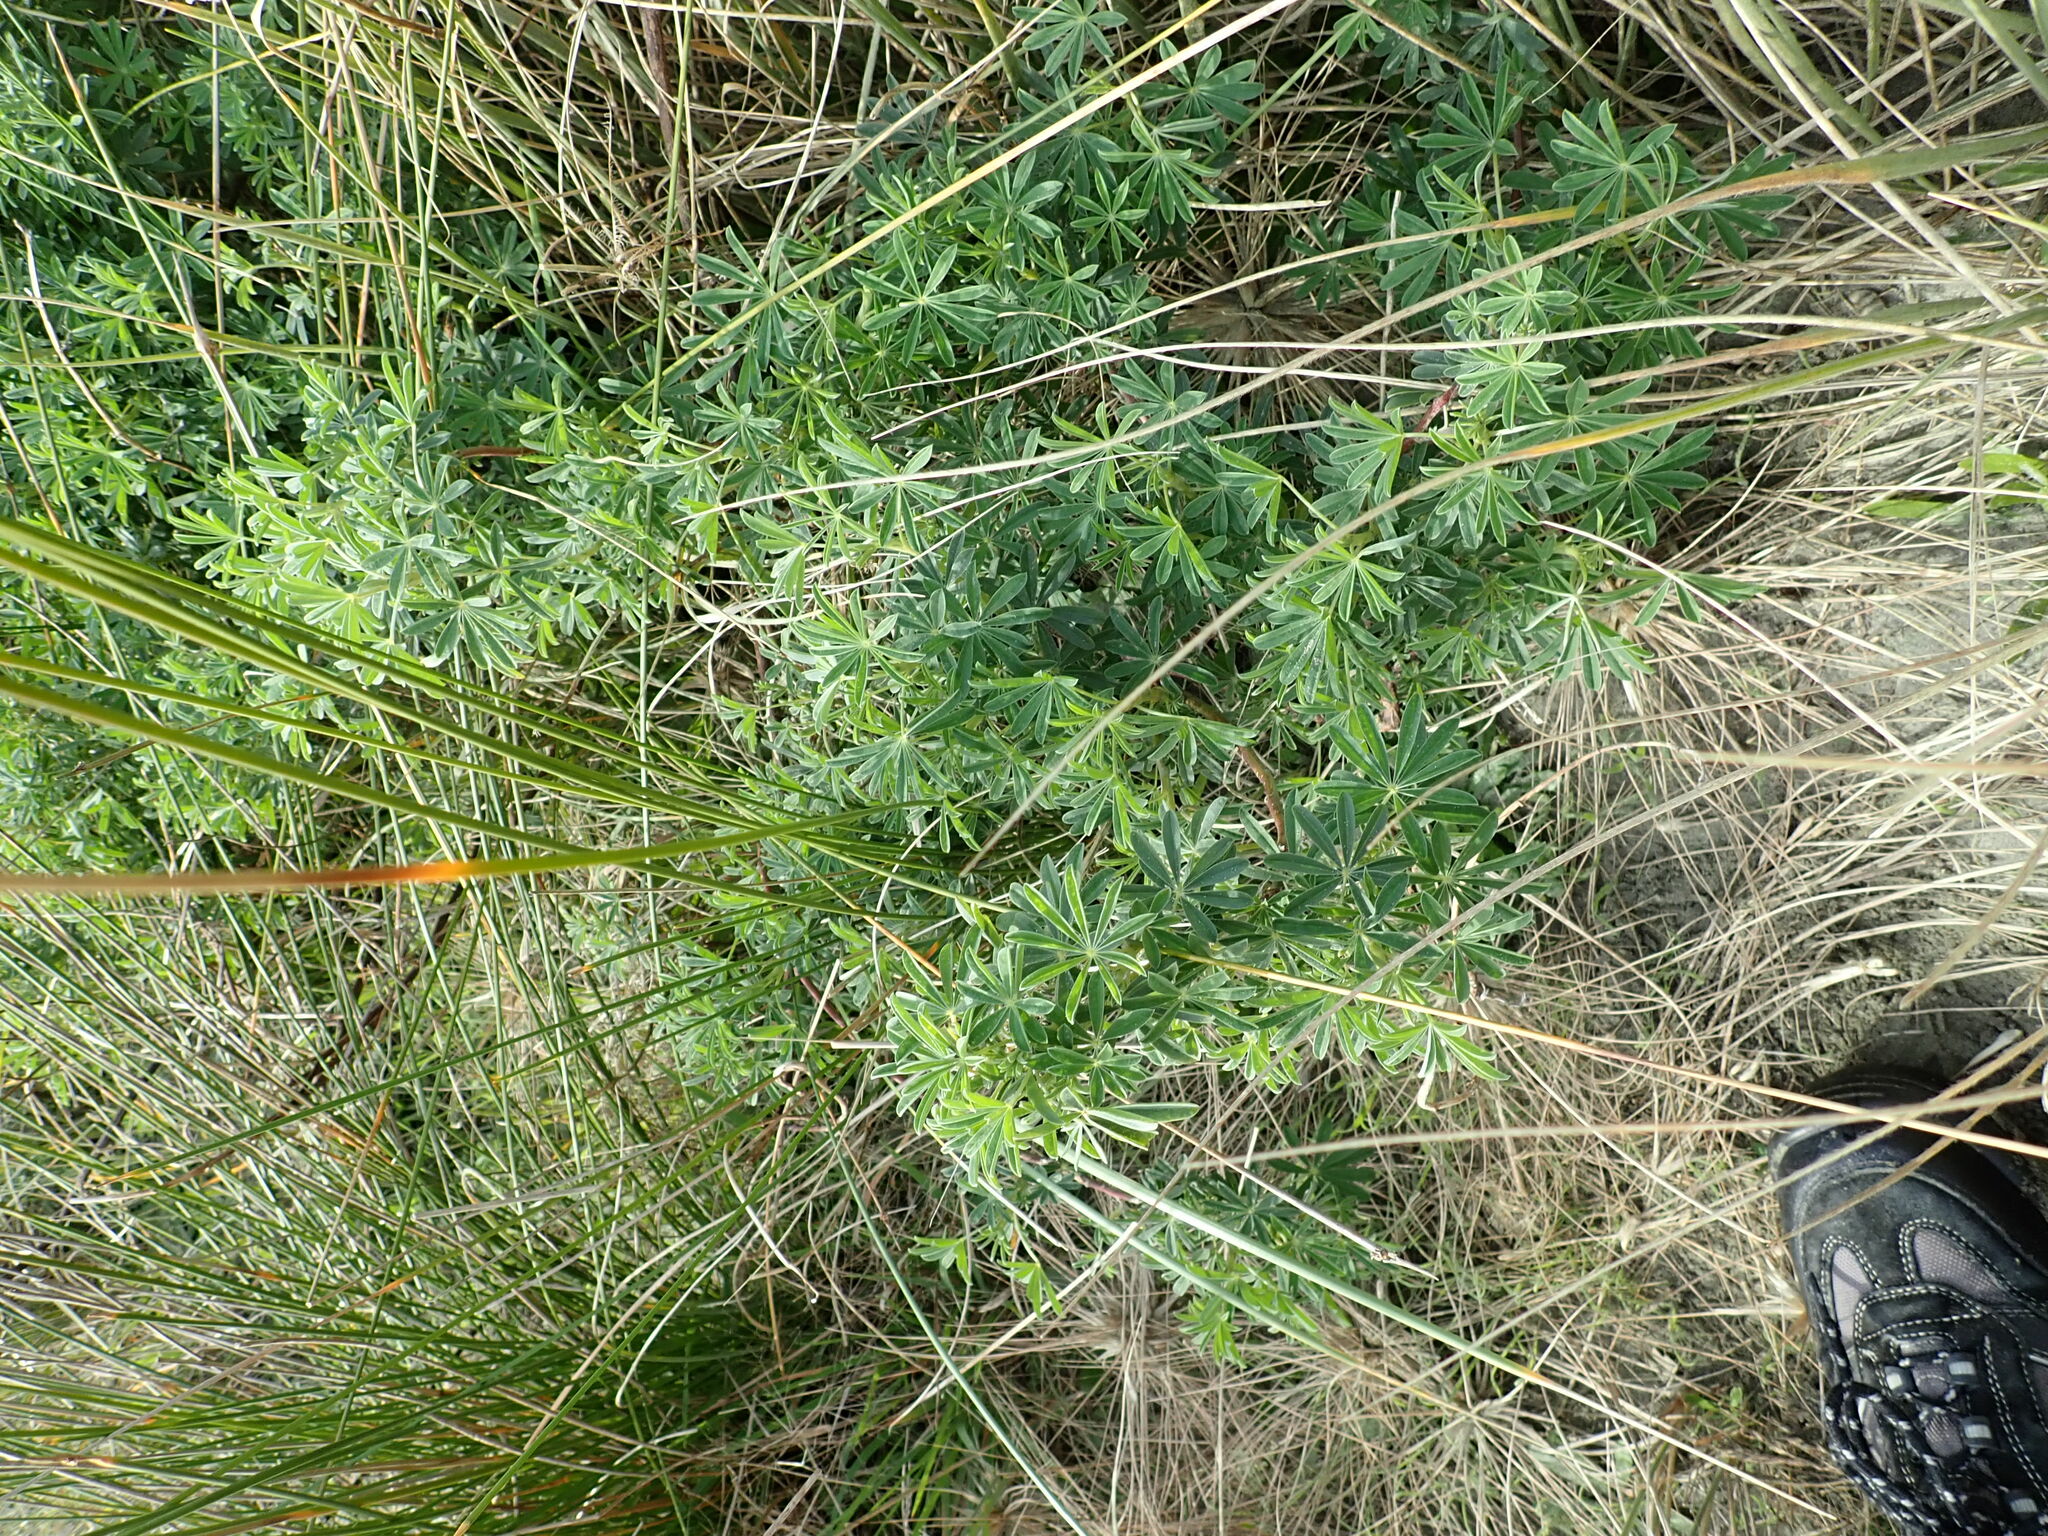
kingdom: Plantae
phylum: Tracheophyta
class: Magnoliopsida
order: Fabales
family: Fabaceae
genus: Lupinus
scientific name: Lupinus arboreus
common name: Yellow bush lupine
